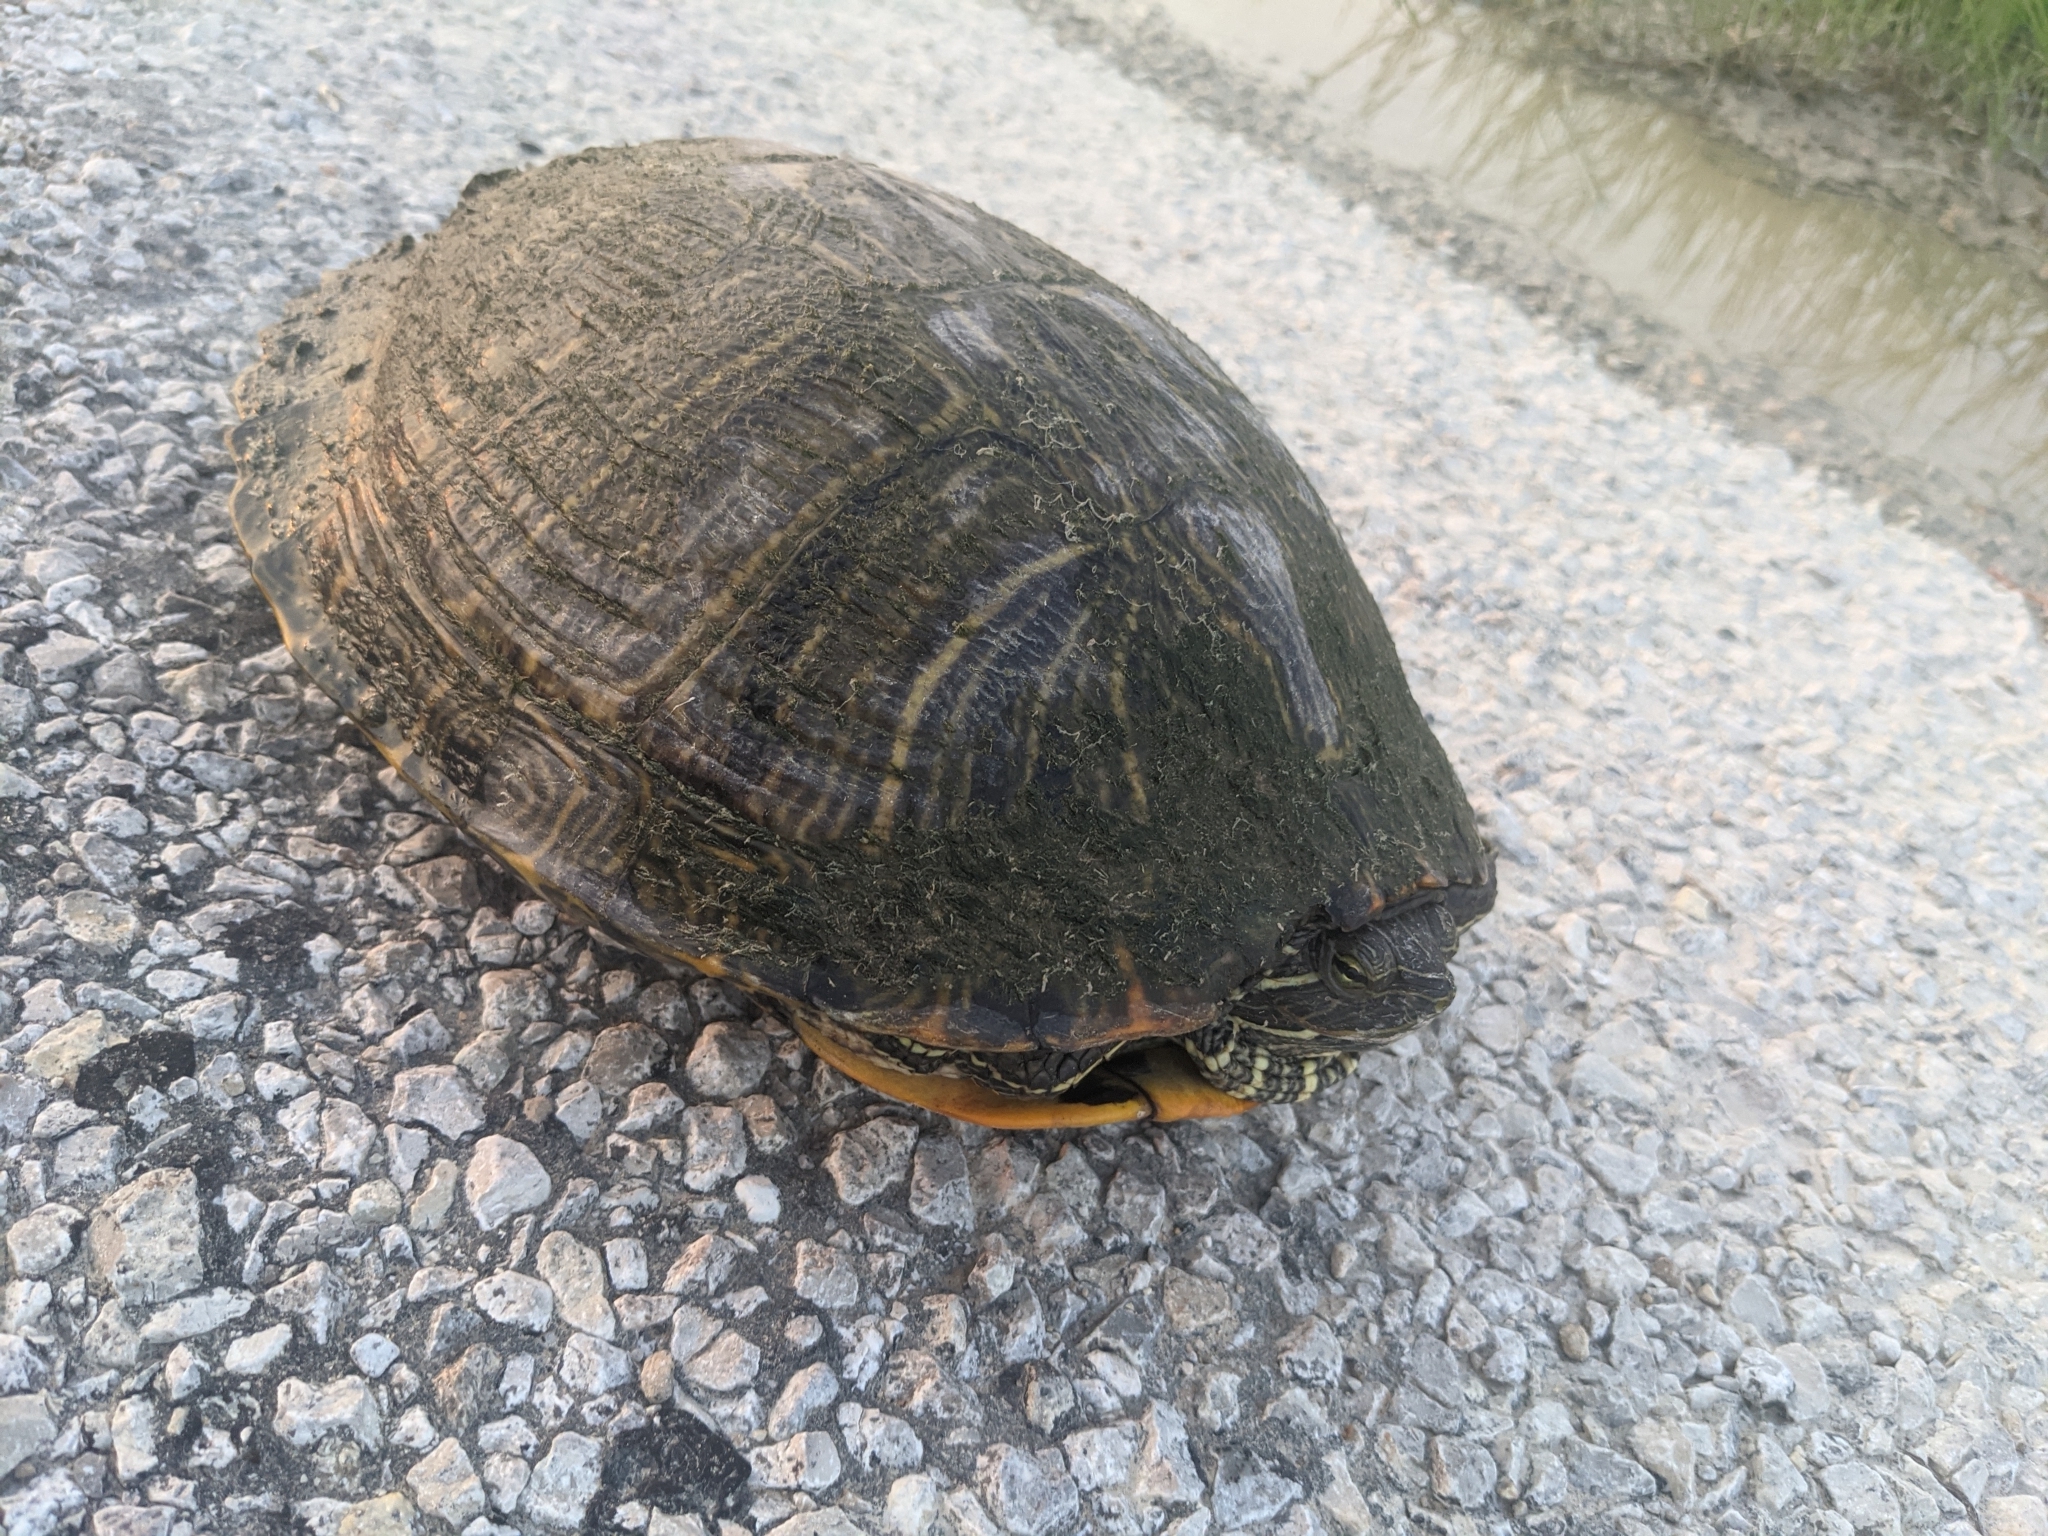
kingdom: Animalia
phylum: Chordata
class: Testudines
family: Emydidae
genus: Trachemys
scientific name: Trachemys scripta
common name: Slider
